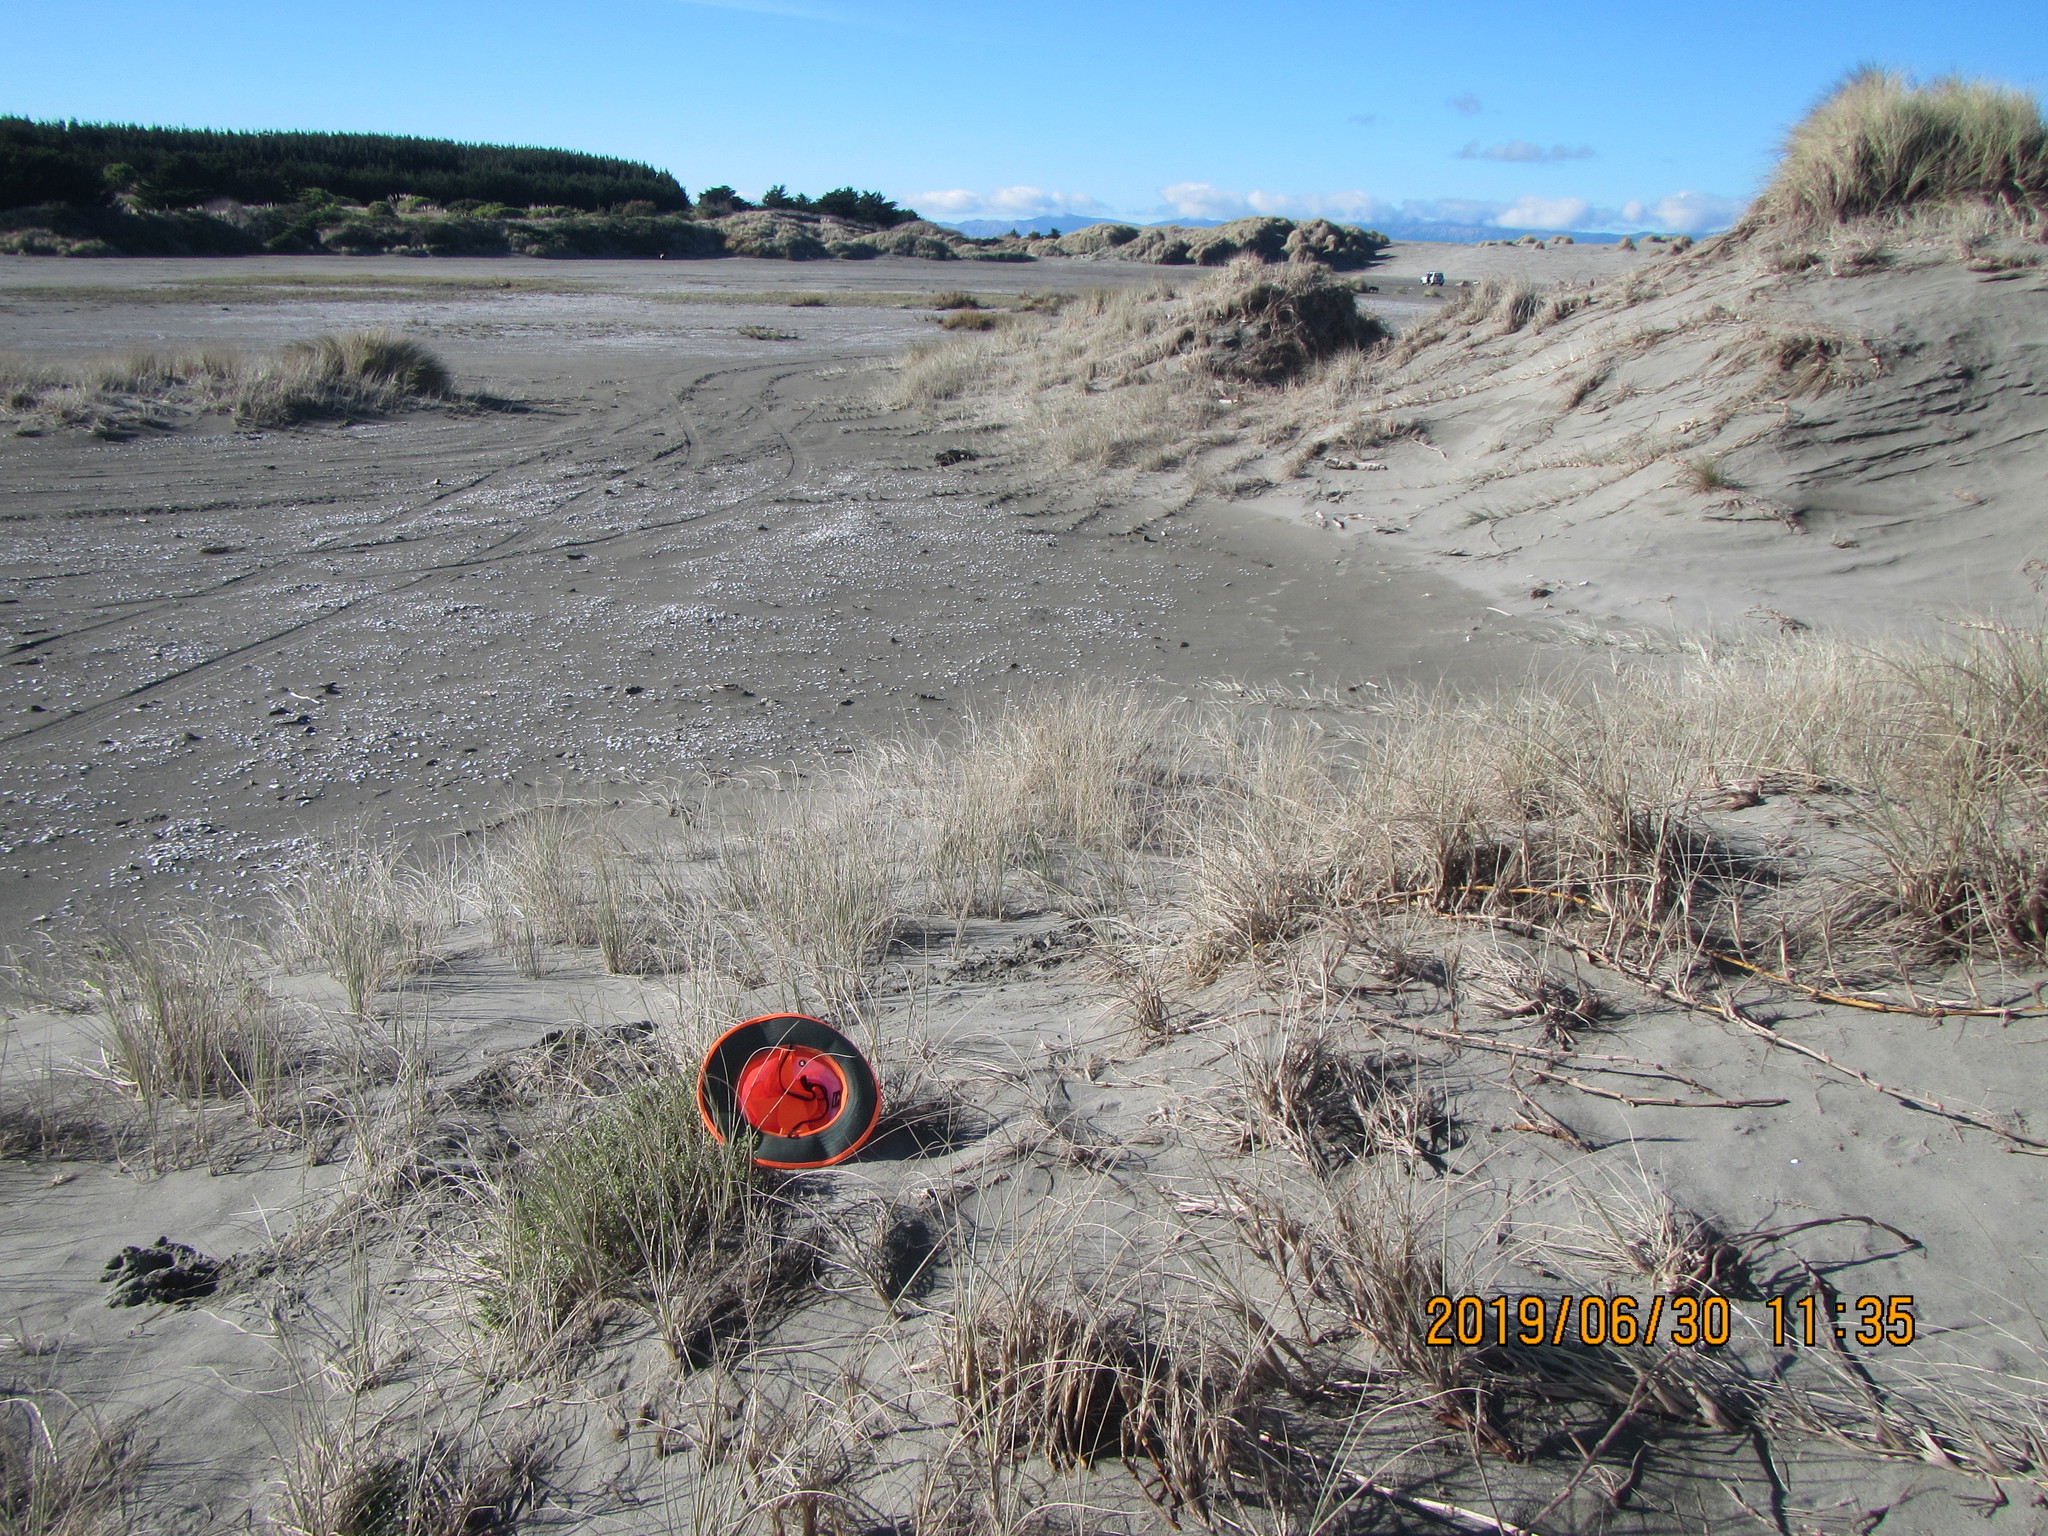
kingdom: Animalia
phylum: Arthropoda
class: Arachnida
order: Araneae
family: Theridiidae
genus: Latrodectus
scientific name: Latrodectus katipo
